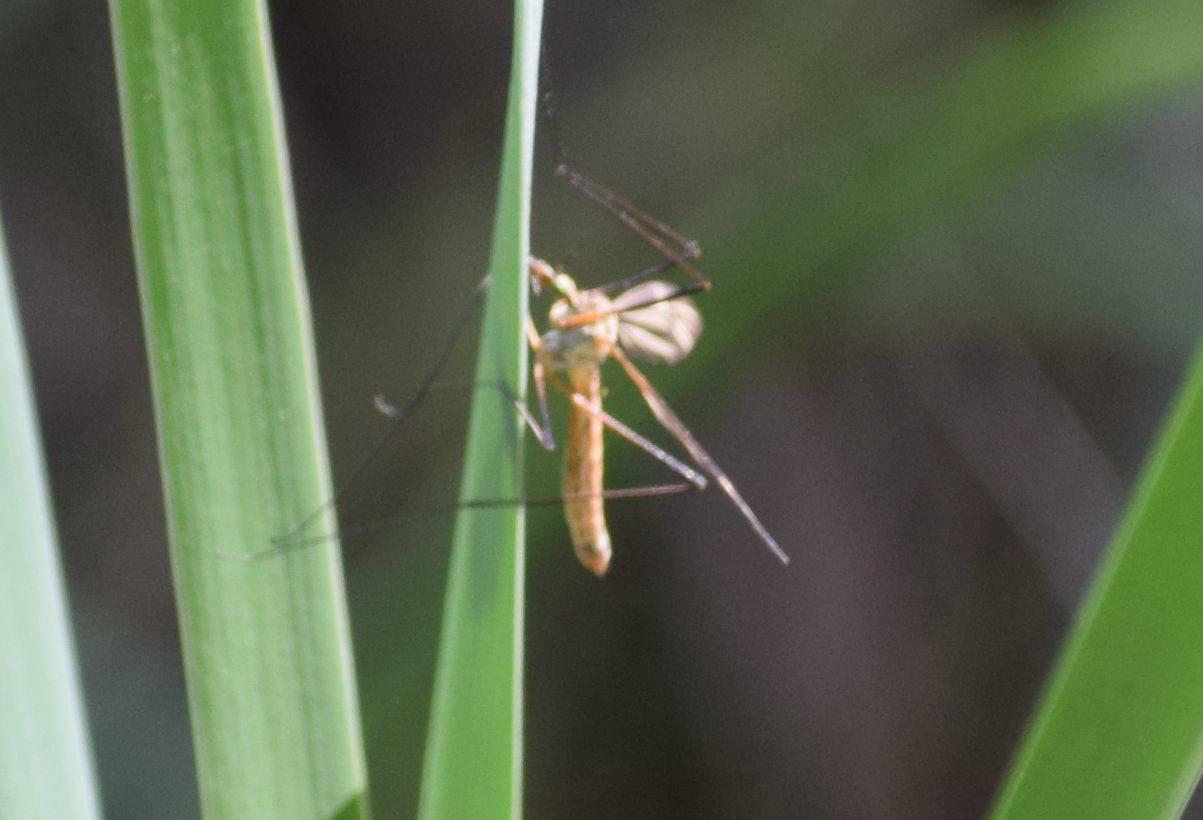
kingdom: Animalia
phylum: Arthropoda
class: Insecta
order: Diptera
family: Tipulidae
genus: Tipula
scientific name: Tipula paludosa
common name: European cranefly
